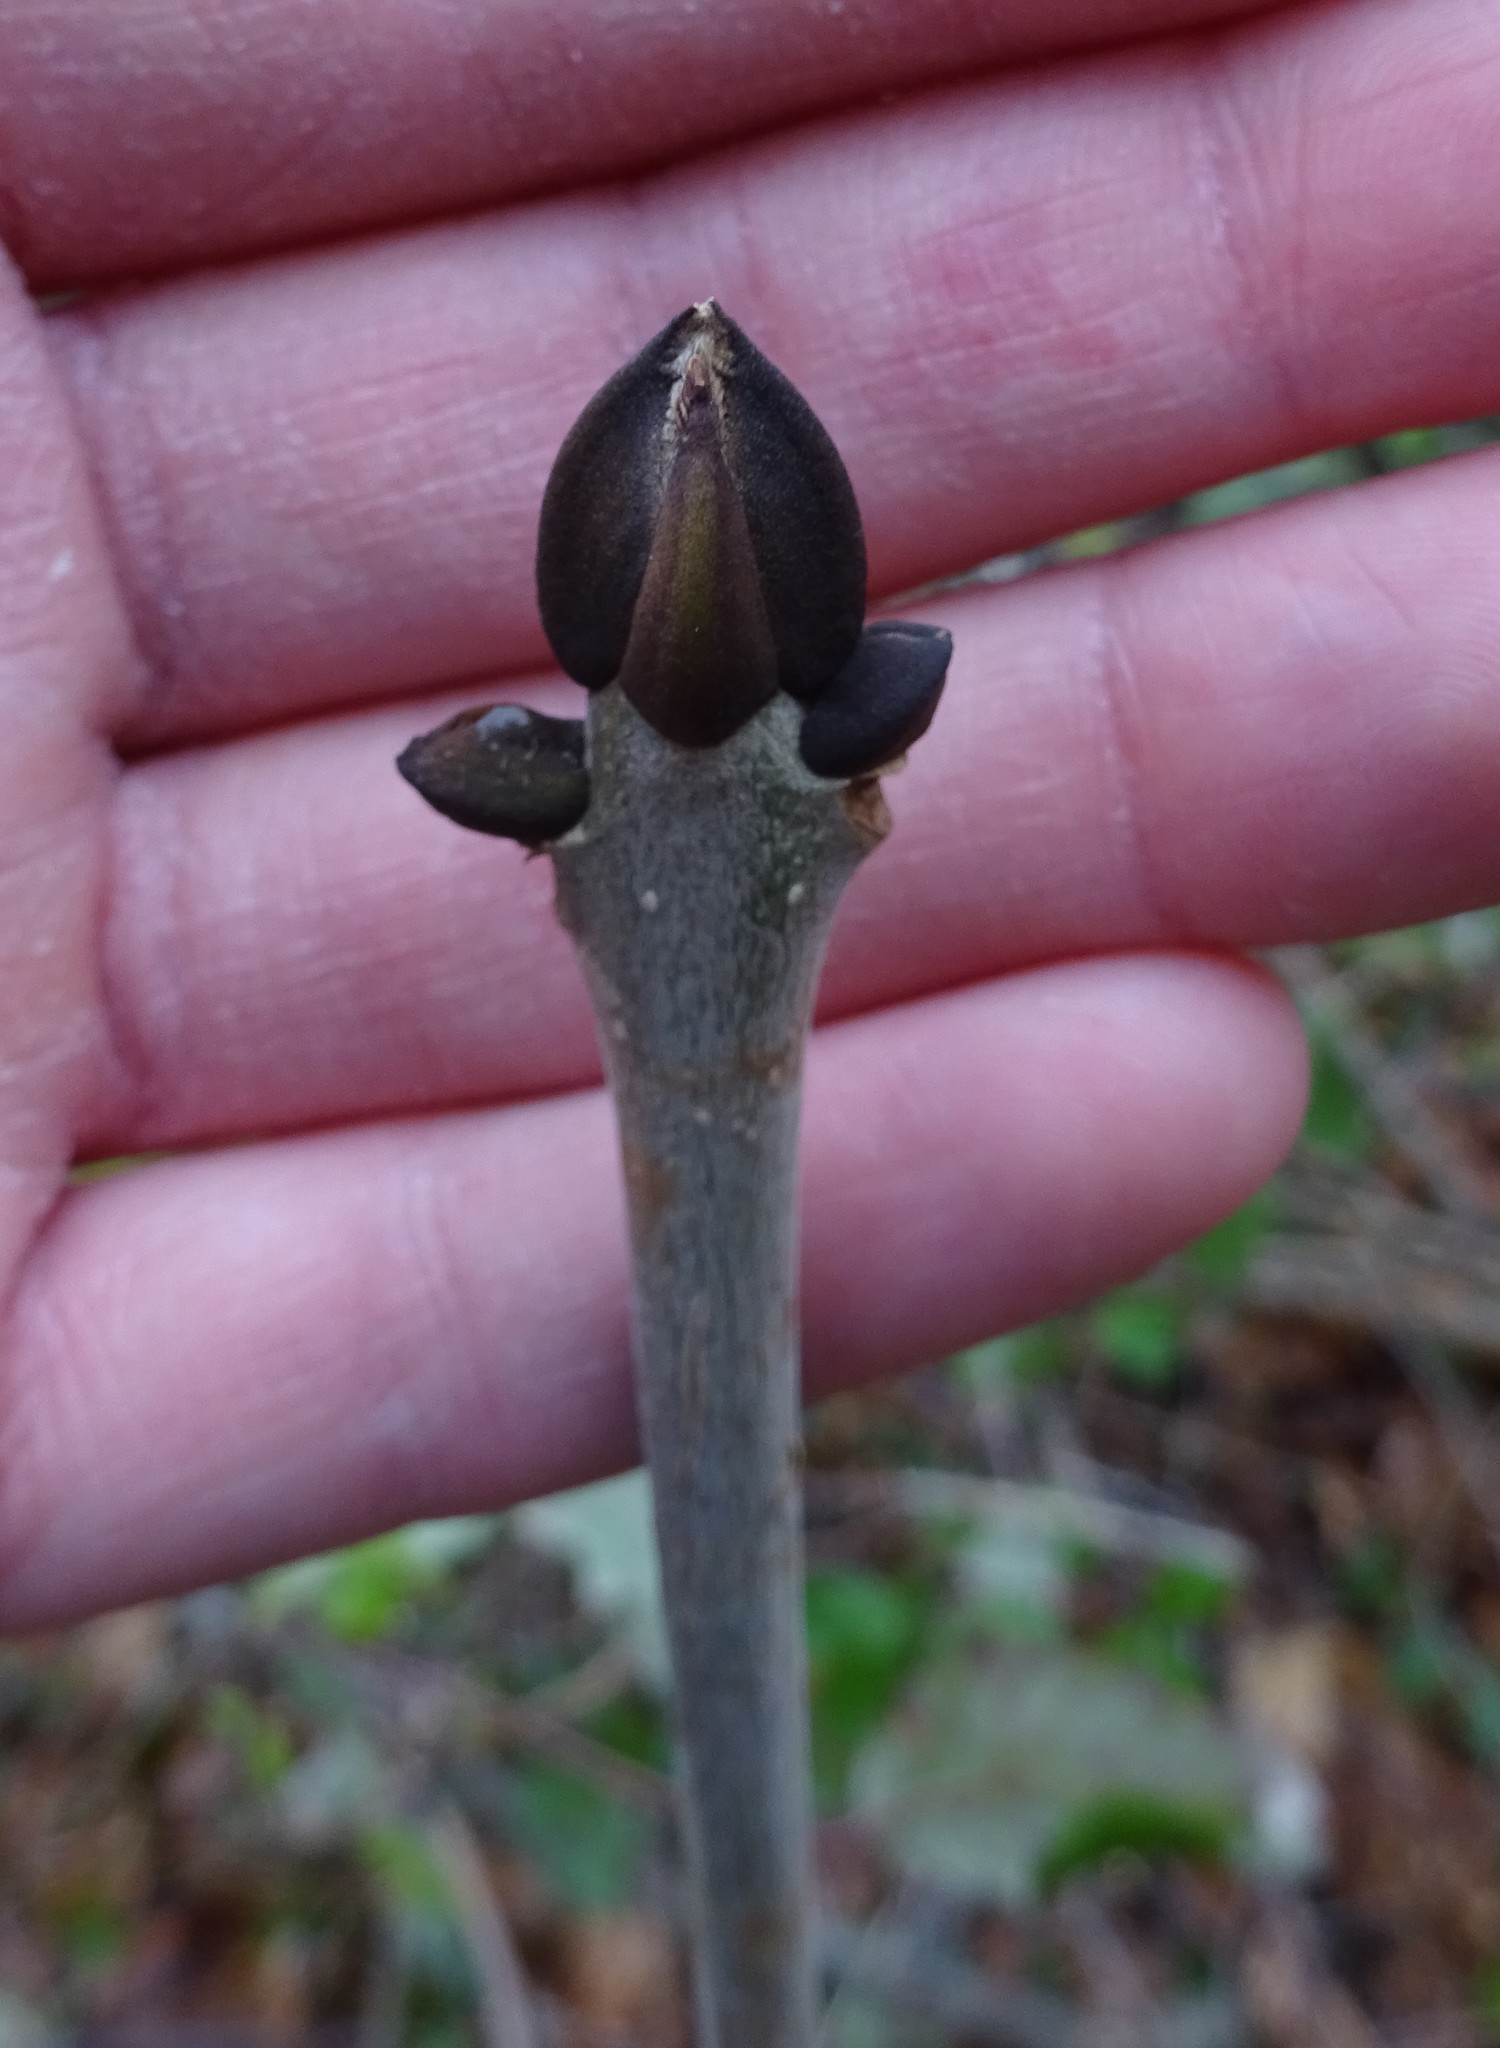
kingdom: Plantae
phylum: Tracheophyta
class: Magnoliopsida
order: Lamiales
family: Oleaceae
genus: Fraxinus
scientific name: Fraxinus excelsior
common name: European ash
